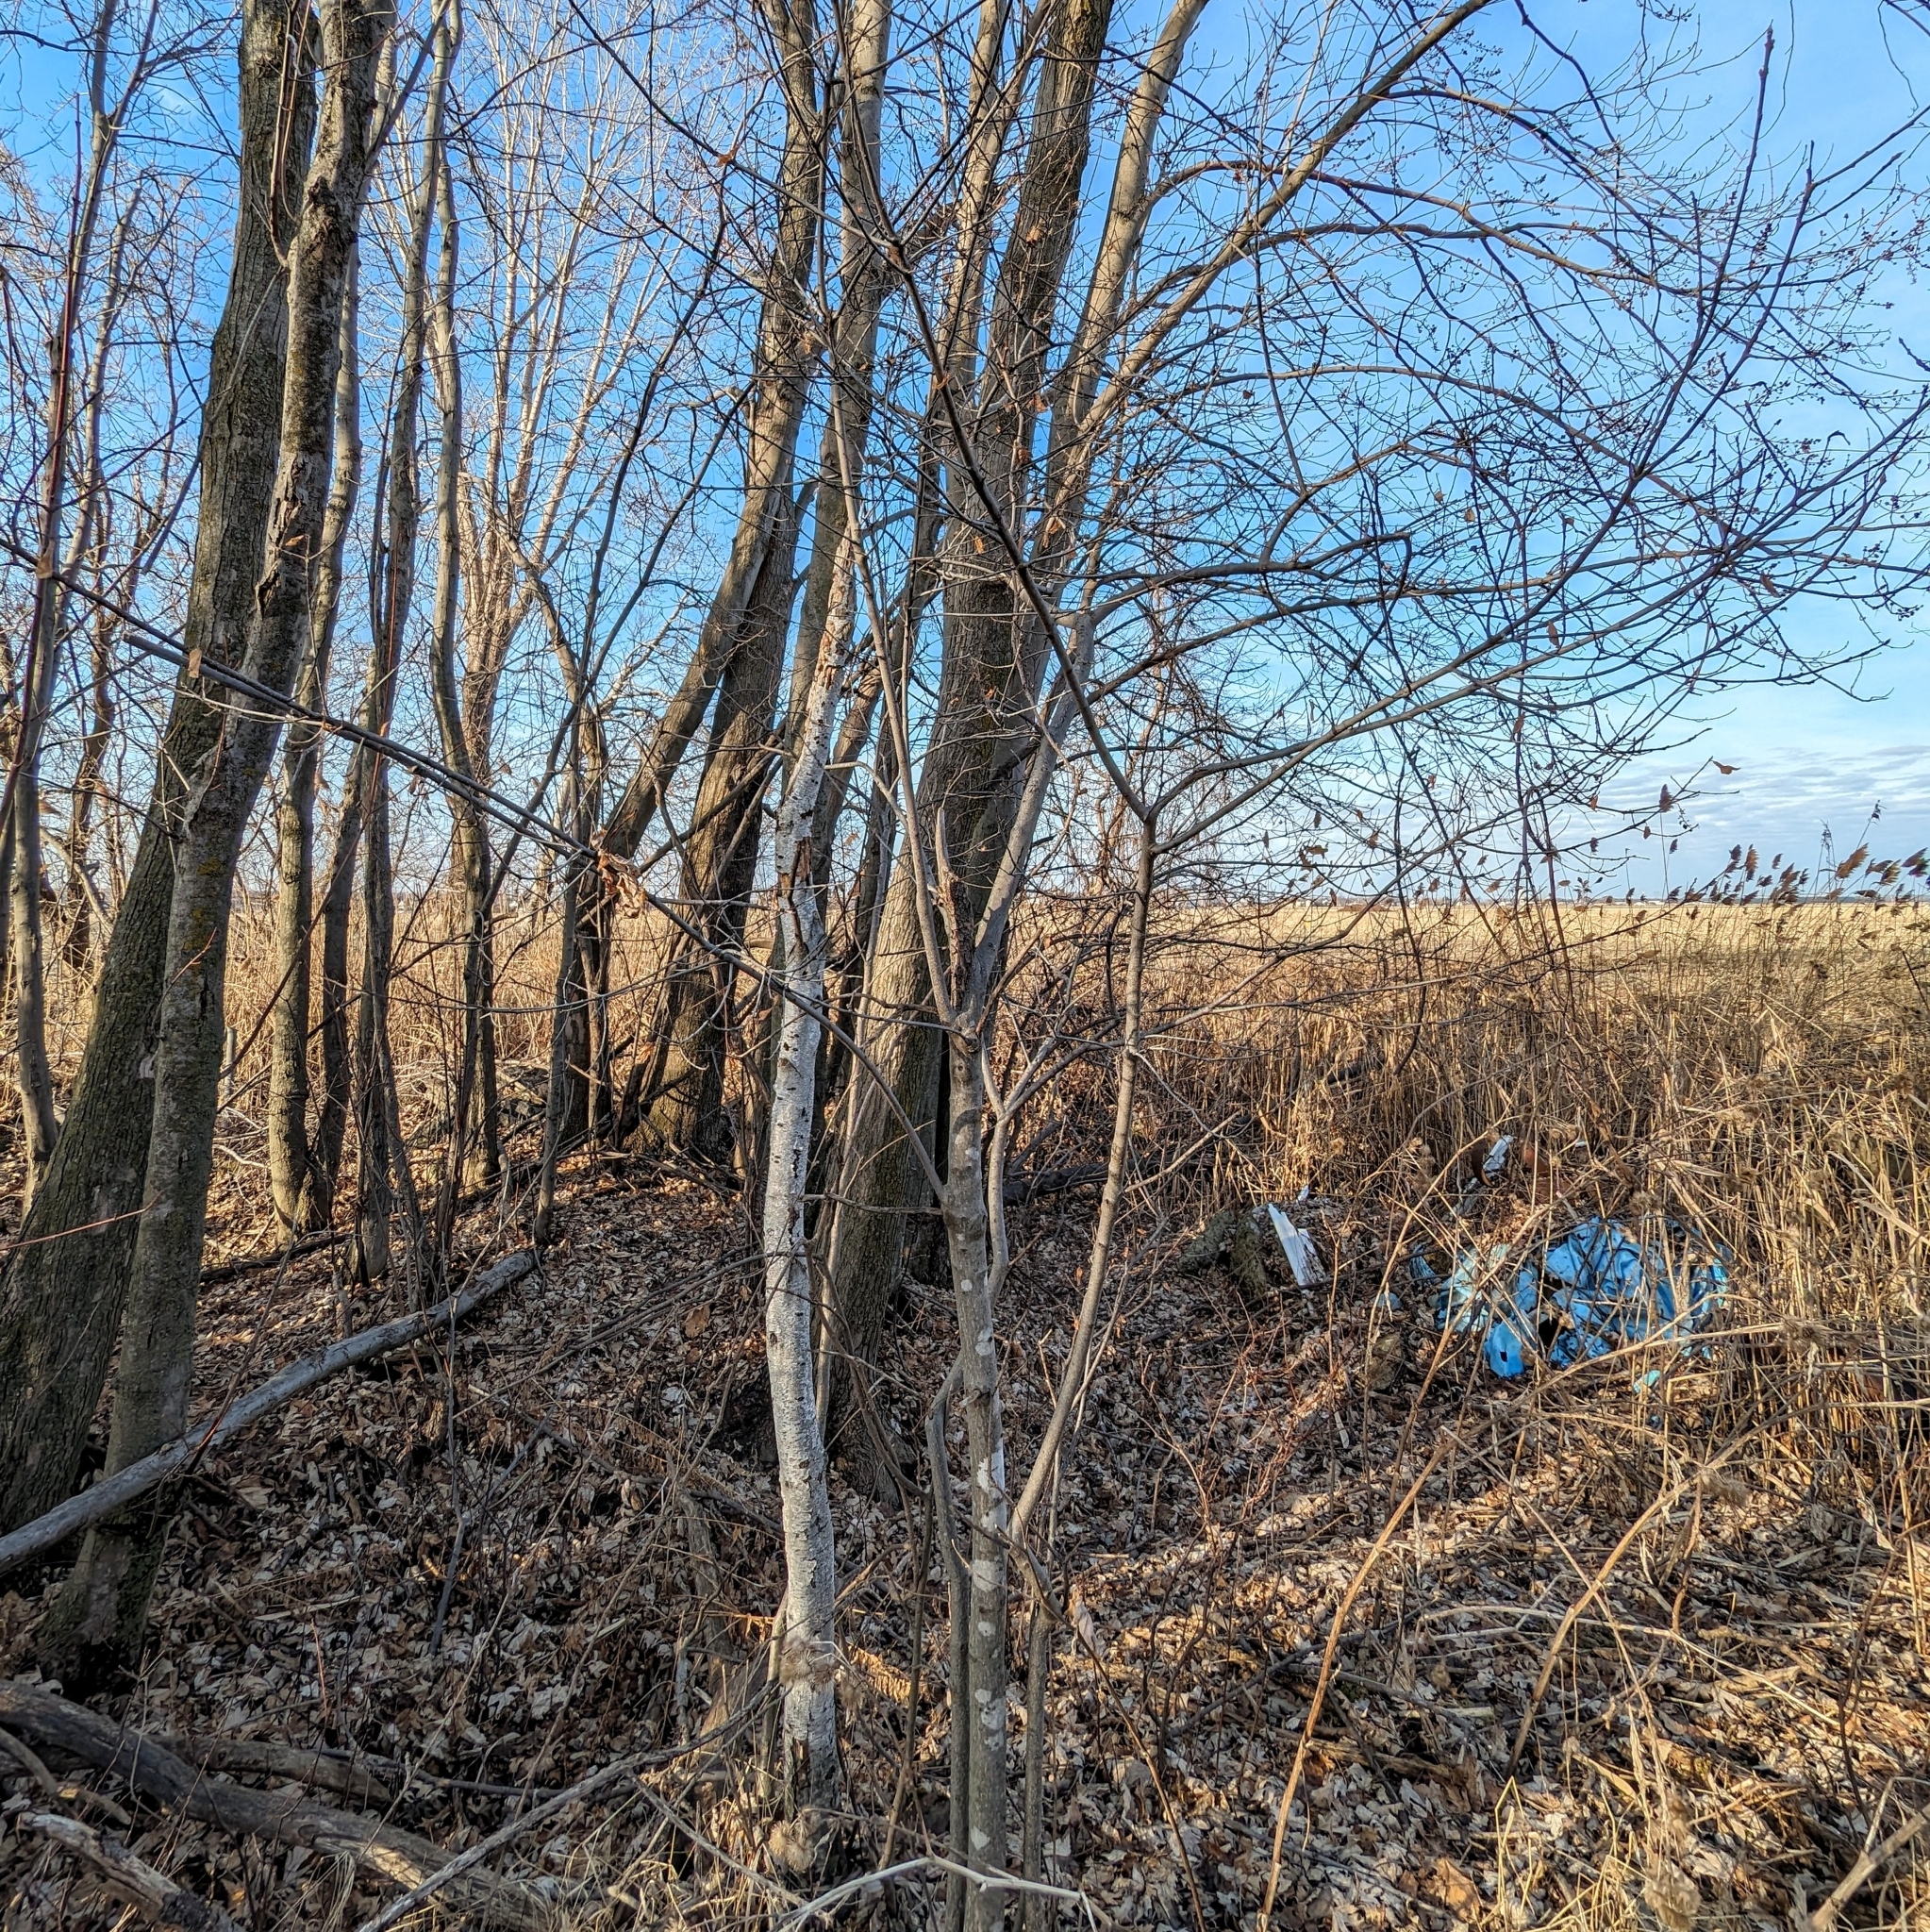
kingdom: Plantae
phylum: Tracheophyta
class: Magnoliopsida
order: Rosales
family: Rhamnaceae
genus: Frangula
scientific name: Frangula alnus
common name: Alder buckthorn
